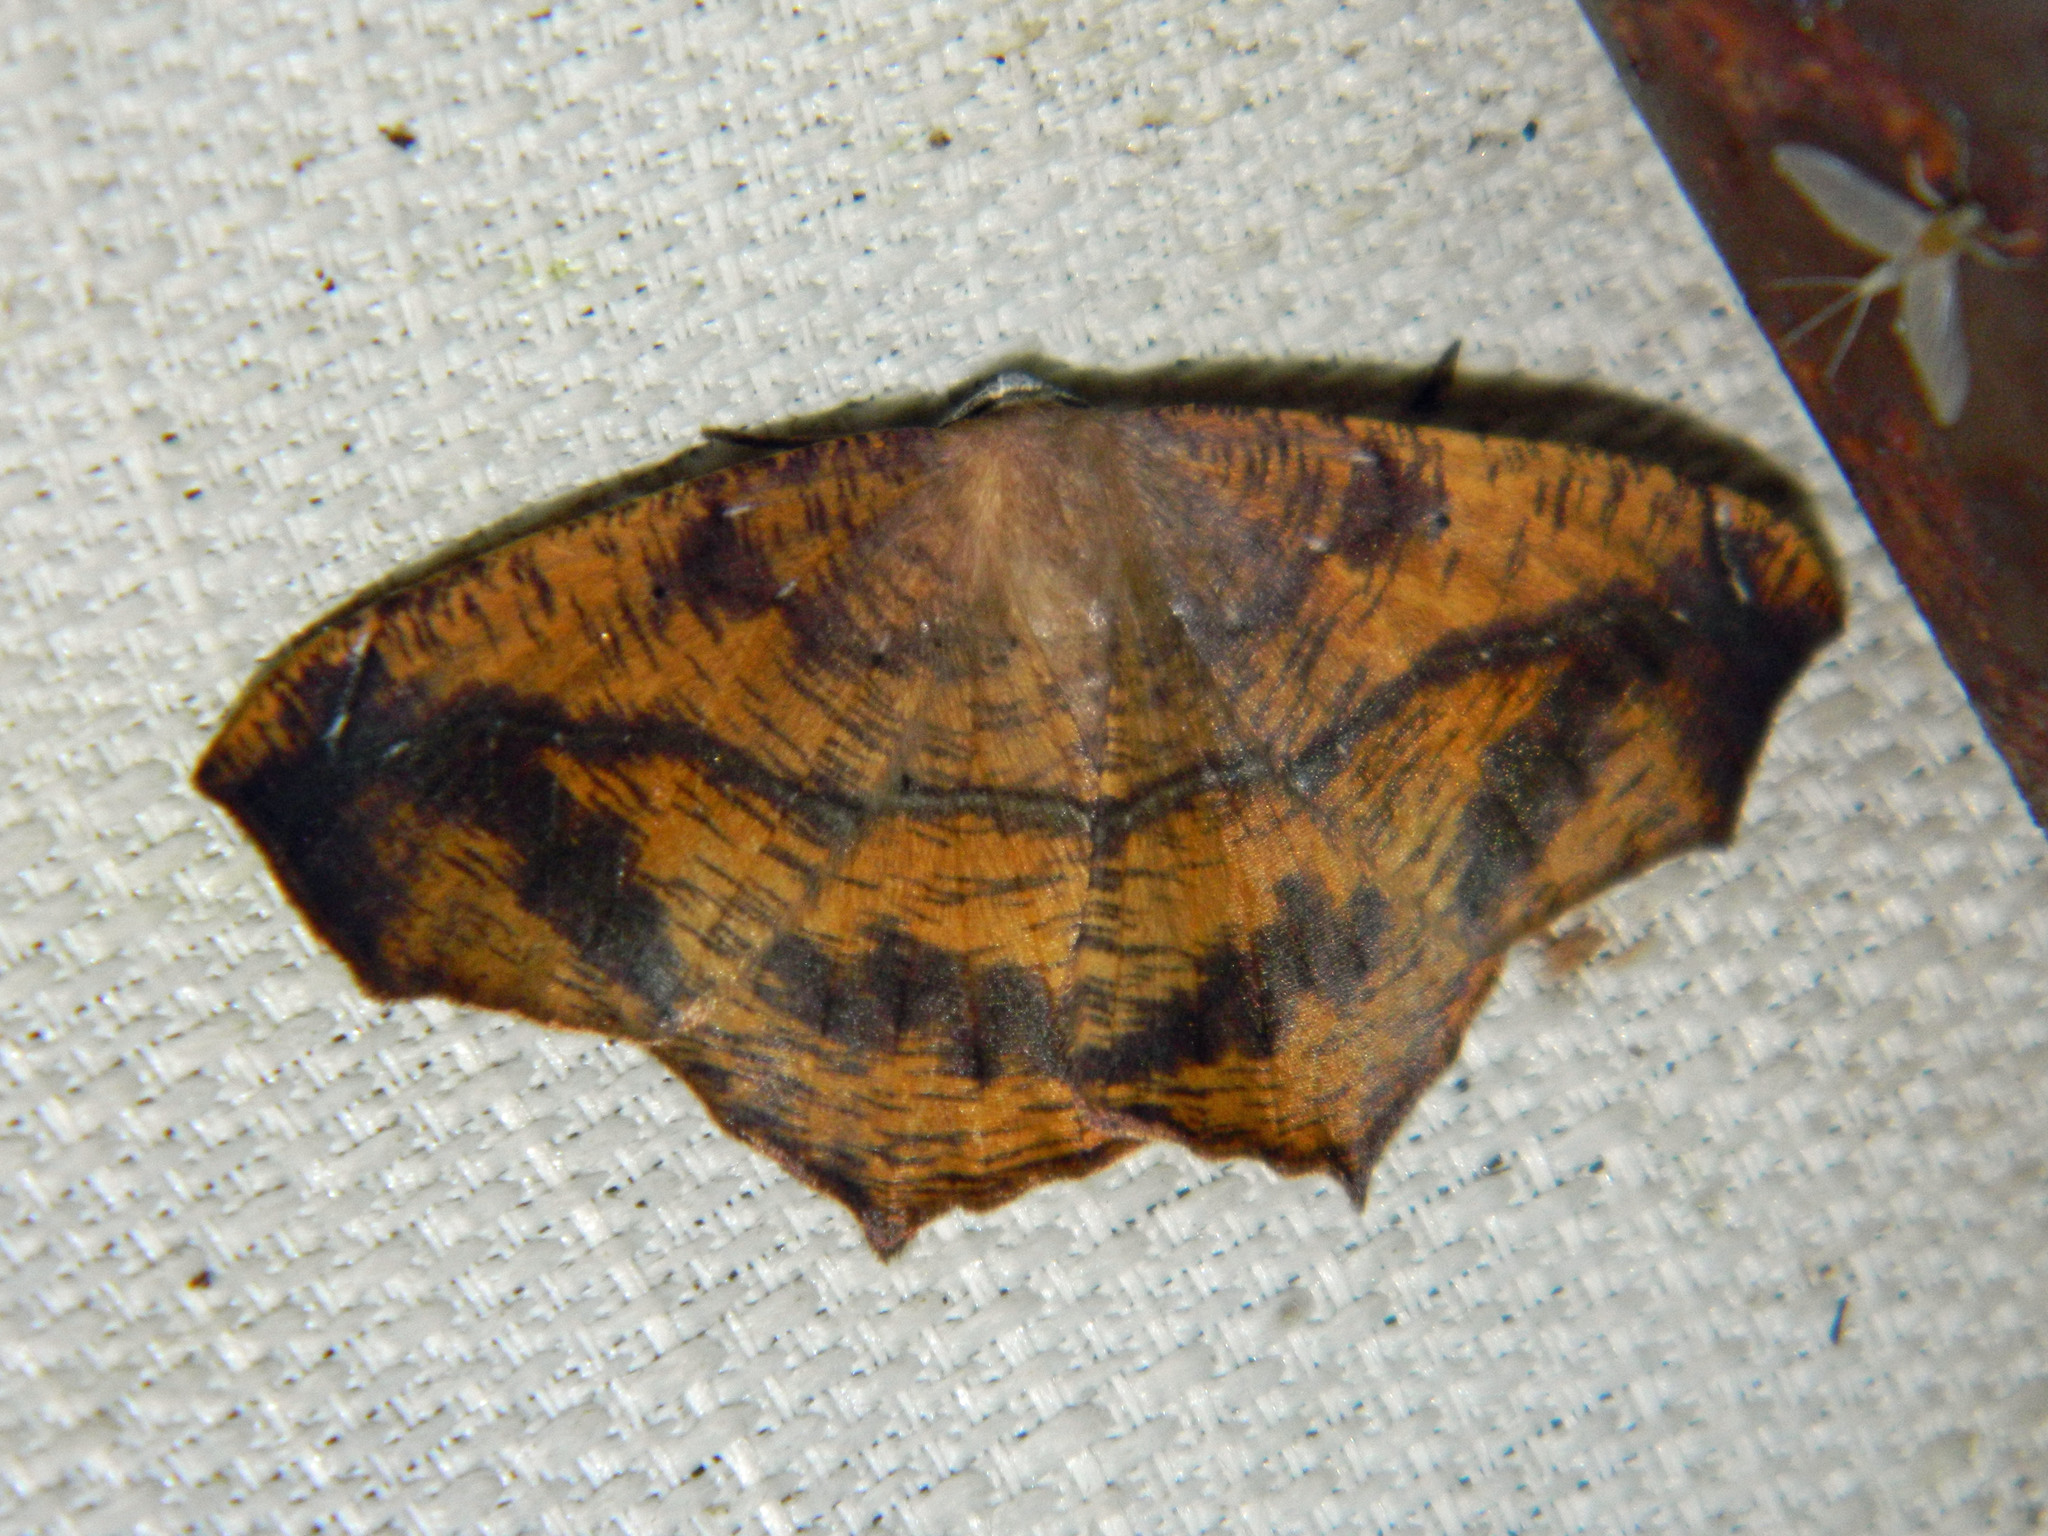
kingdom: Animalia
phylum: Arthropoda
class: Insecta
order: Lepidoptera
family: Geometridae
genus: Prochoerodes
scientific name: Prochoerodes lineola
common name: Large maple spanworm
